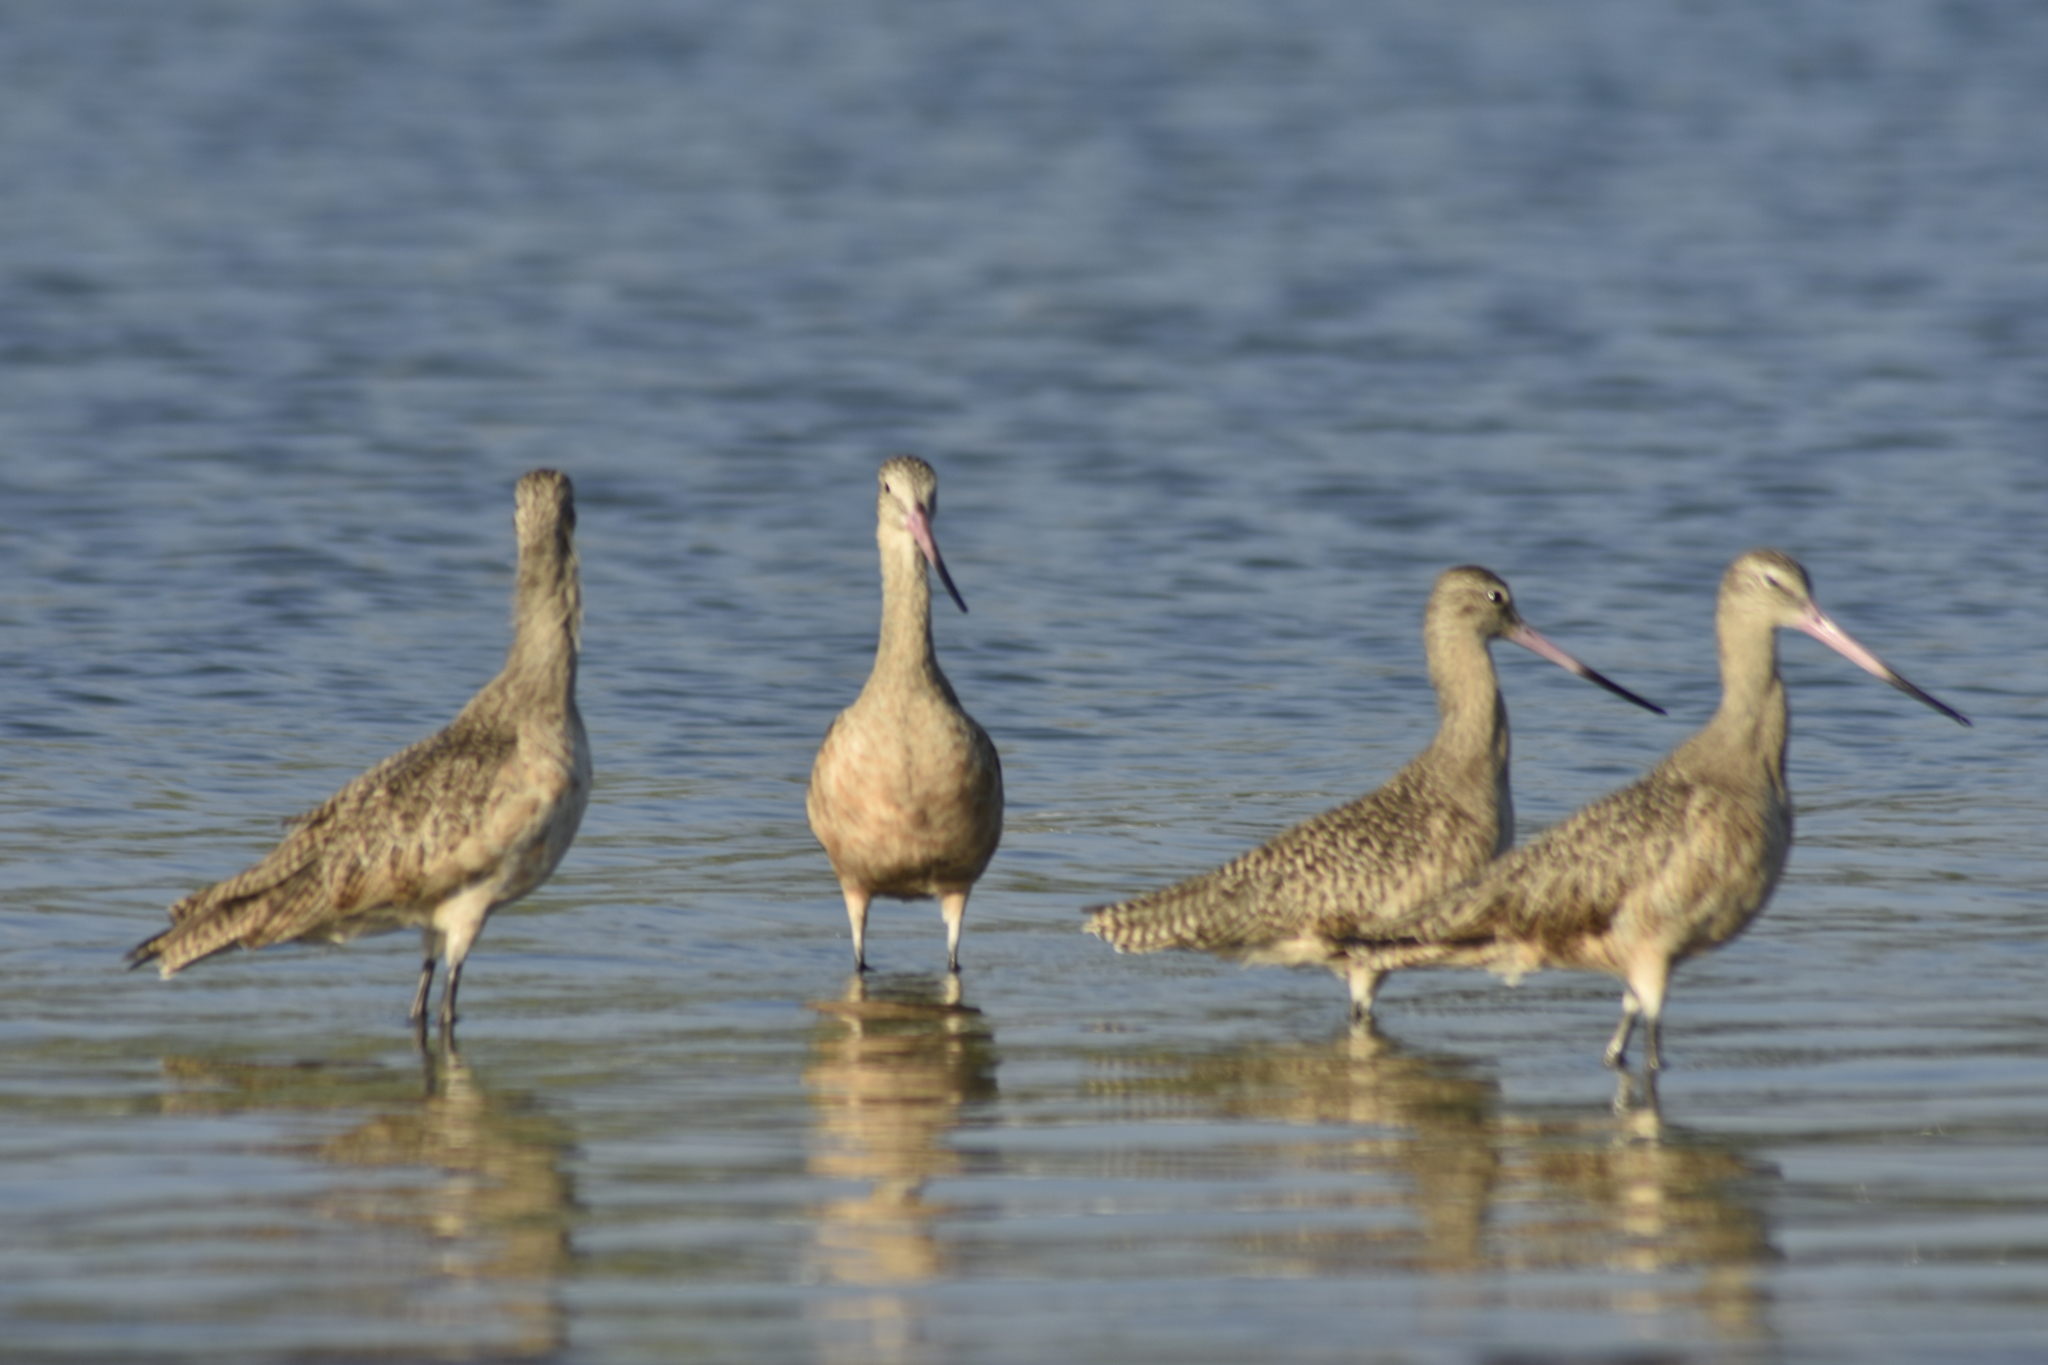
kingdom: Animalia
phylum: Chordata
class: Aves
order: Charadriiformes
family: Scolopacidae
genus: Limosa
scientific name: Limosa fedoa
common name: Marbled godwit
